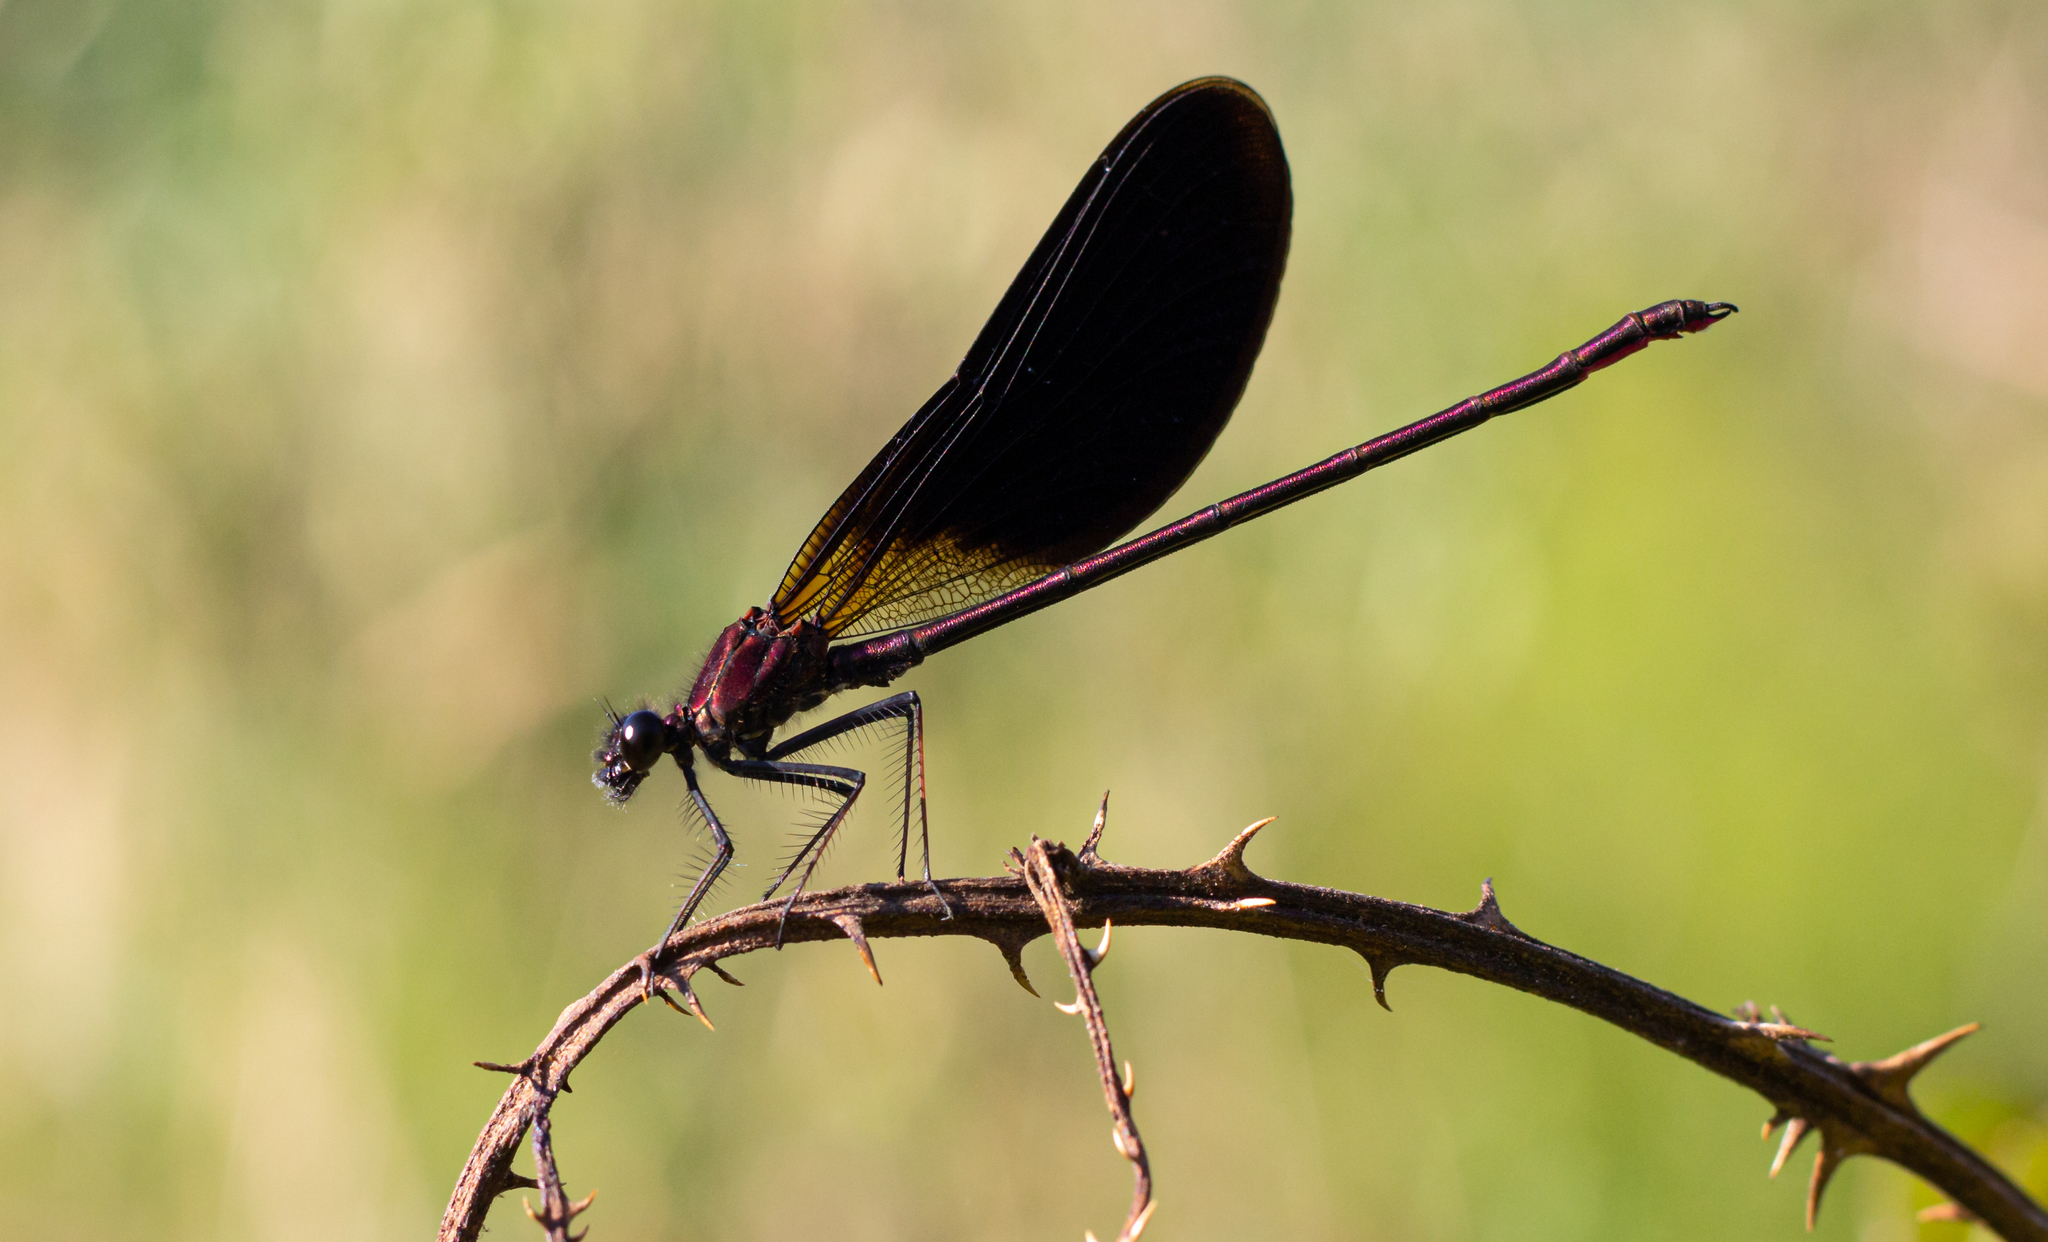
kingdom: Animalia
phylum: Arthropoda
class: Insecta
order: Odonata
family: Calopterygidae
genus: Calopteryx
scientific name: Calopteryx haemorrhoidalis
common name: Copper demoiselle
